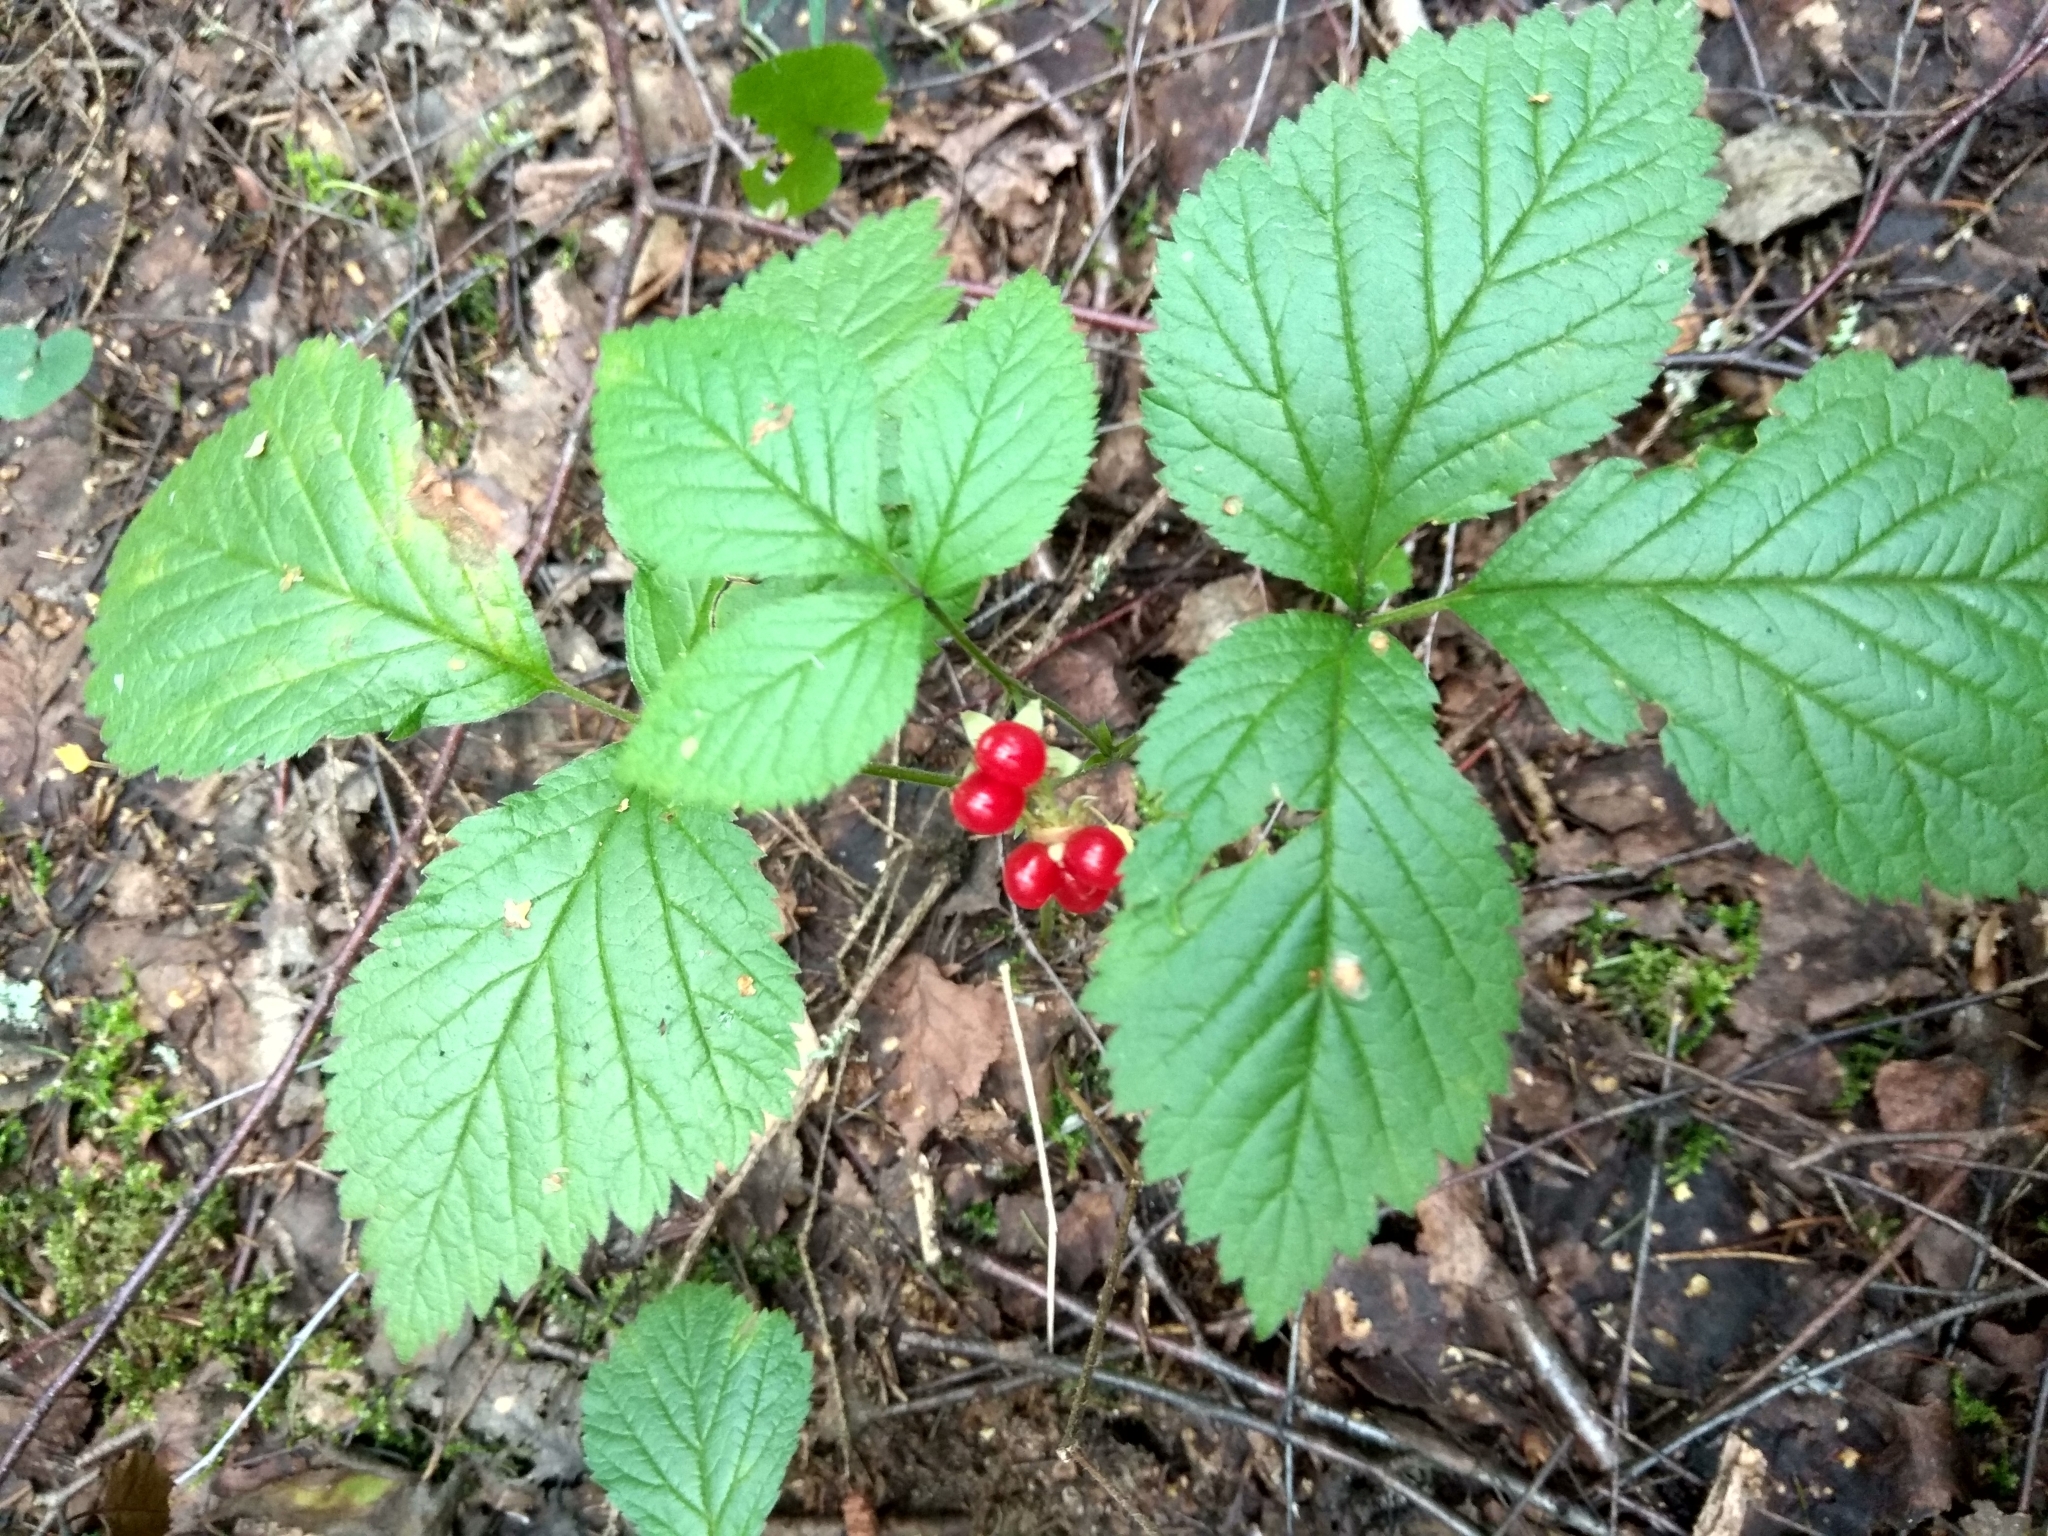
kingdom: Plantae
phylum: Tracheophyta
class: Magnoliopsida
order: Rosales
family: Rosaceae
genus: Rubus
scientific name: Rubus saxatilis
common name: Stone bramble
